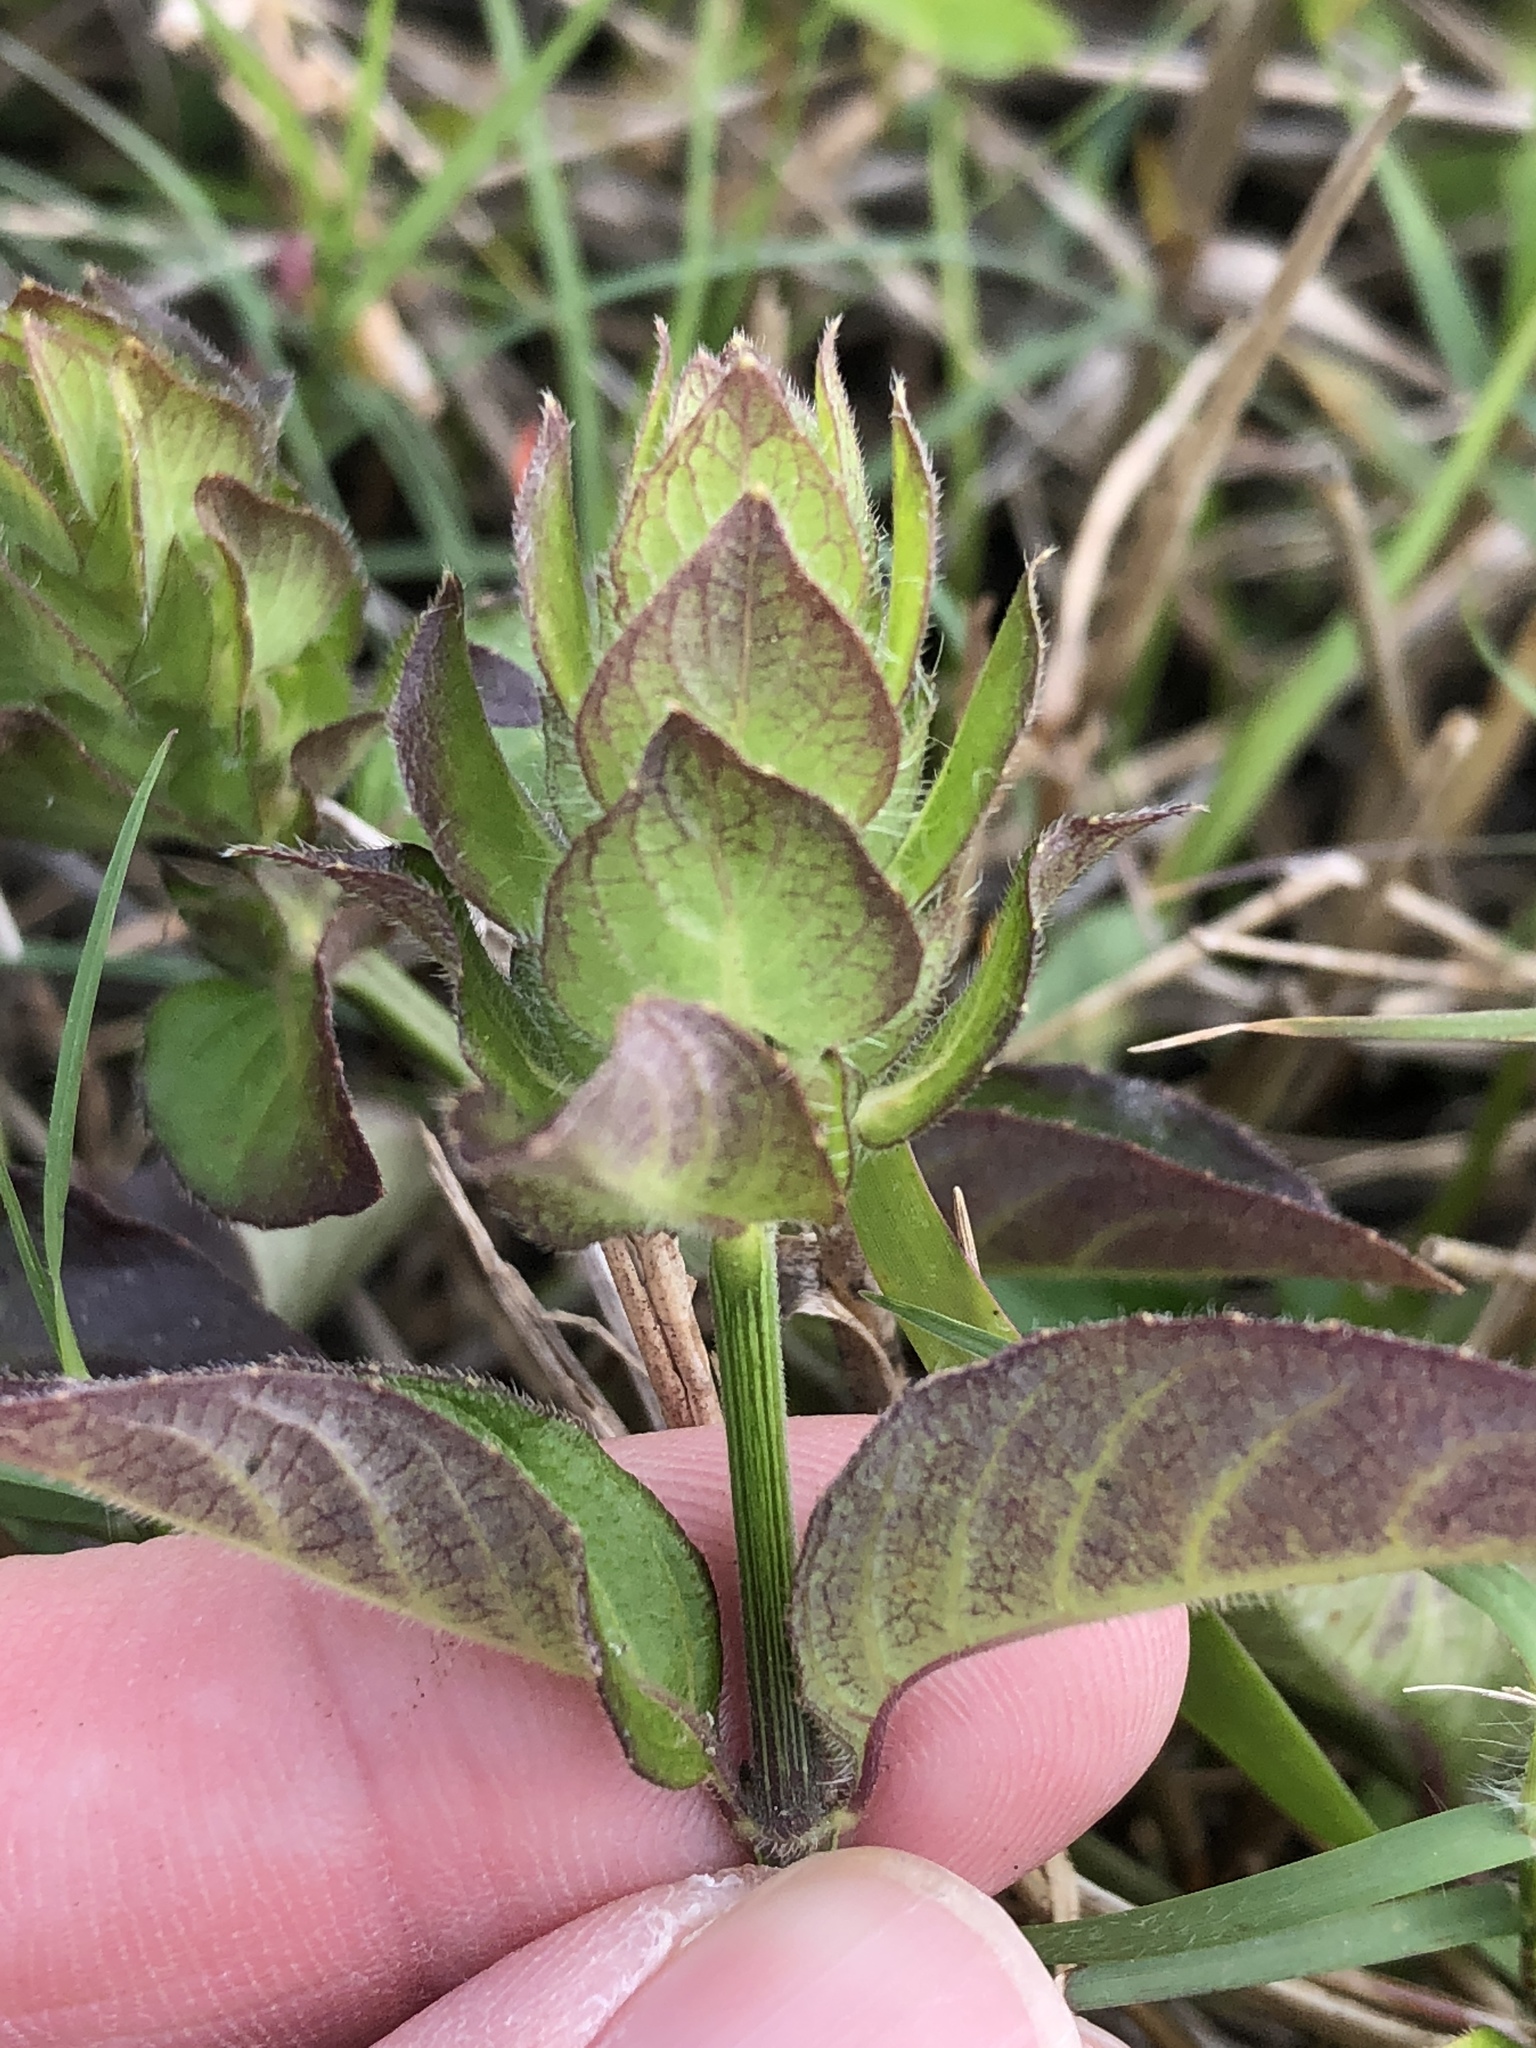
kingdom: Plantae
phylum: Tracheophyta
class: Magnoliopsida
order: Lamiales
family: Acanthaceae
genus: Ruellia
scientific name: Ruellia blechum
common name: Browne's blechum
